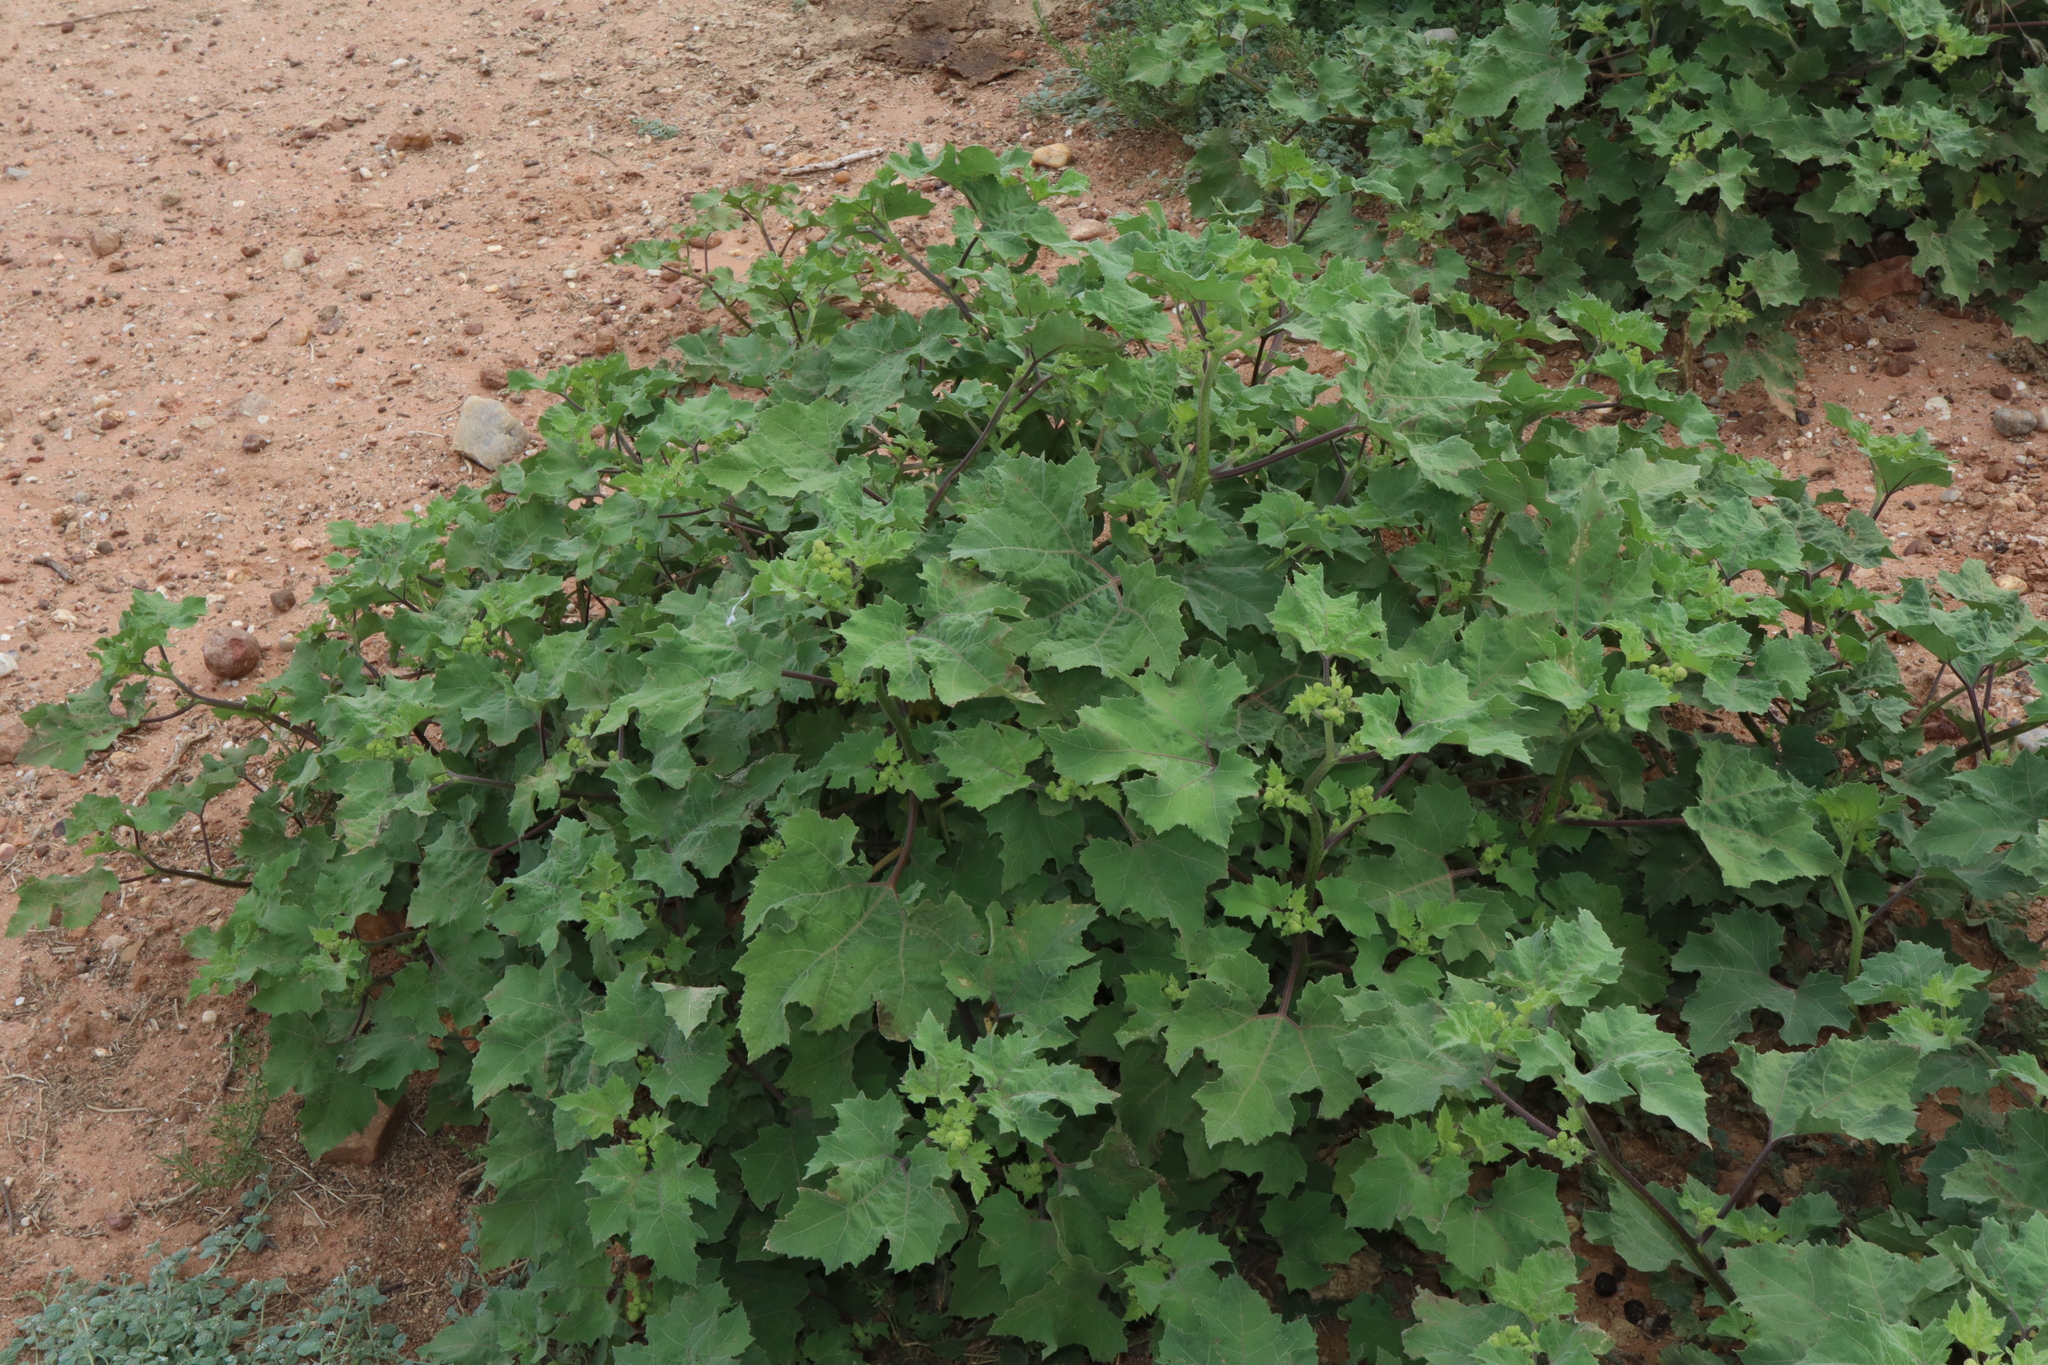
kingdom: Plantae
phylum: Tracheophyta
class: Magnoliopsida
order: Asterales
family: Asteraceae
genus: Xanthium
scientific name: Xanthium strumarium
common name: Rough cocklebur
